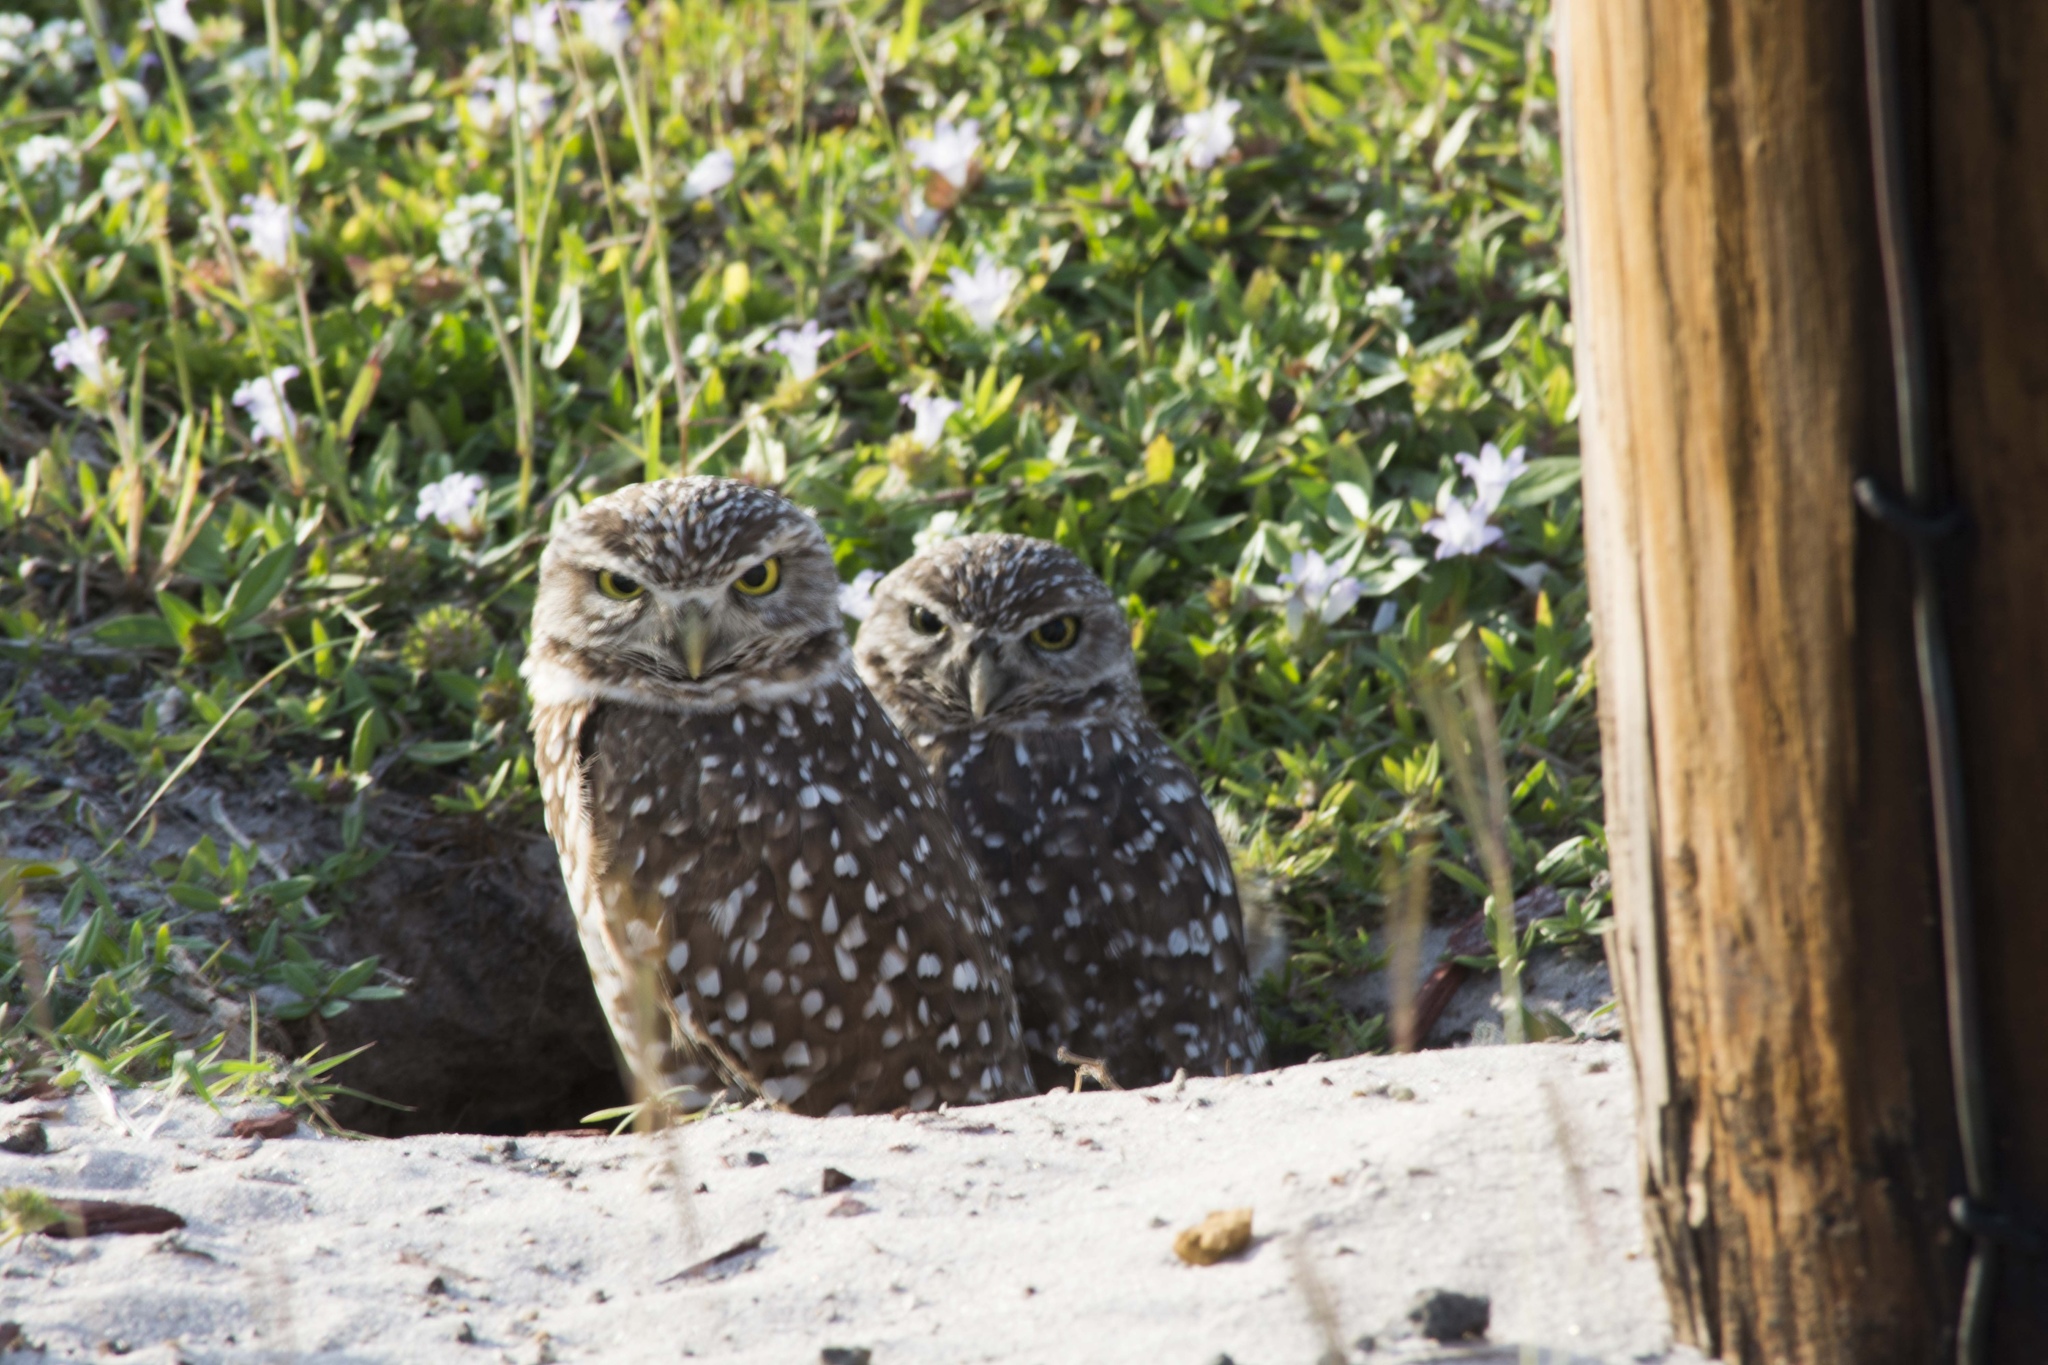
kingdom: Animalia
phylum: Chordata
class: Aves
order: Strigiformes
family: Strigidae
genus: Athene
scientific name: Athene cunicularia
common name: Burrowing owl
